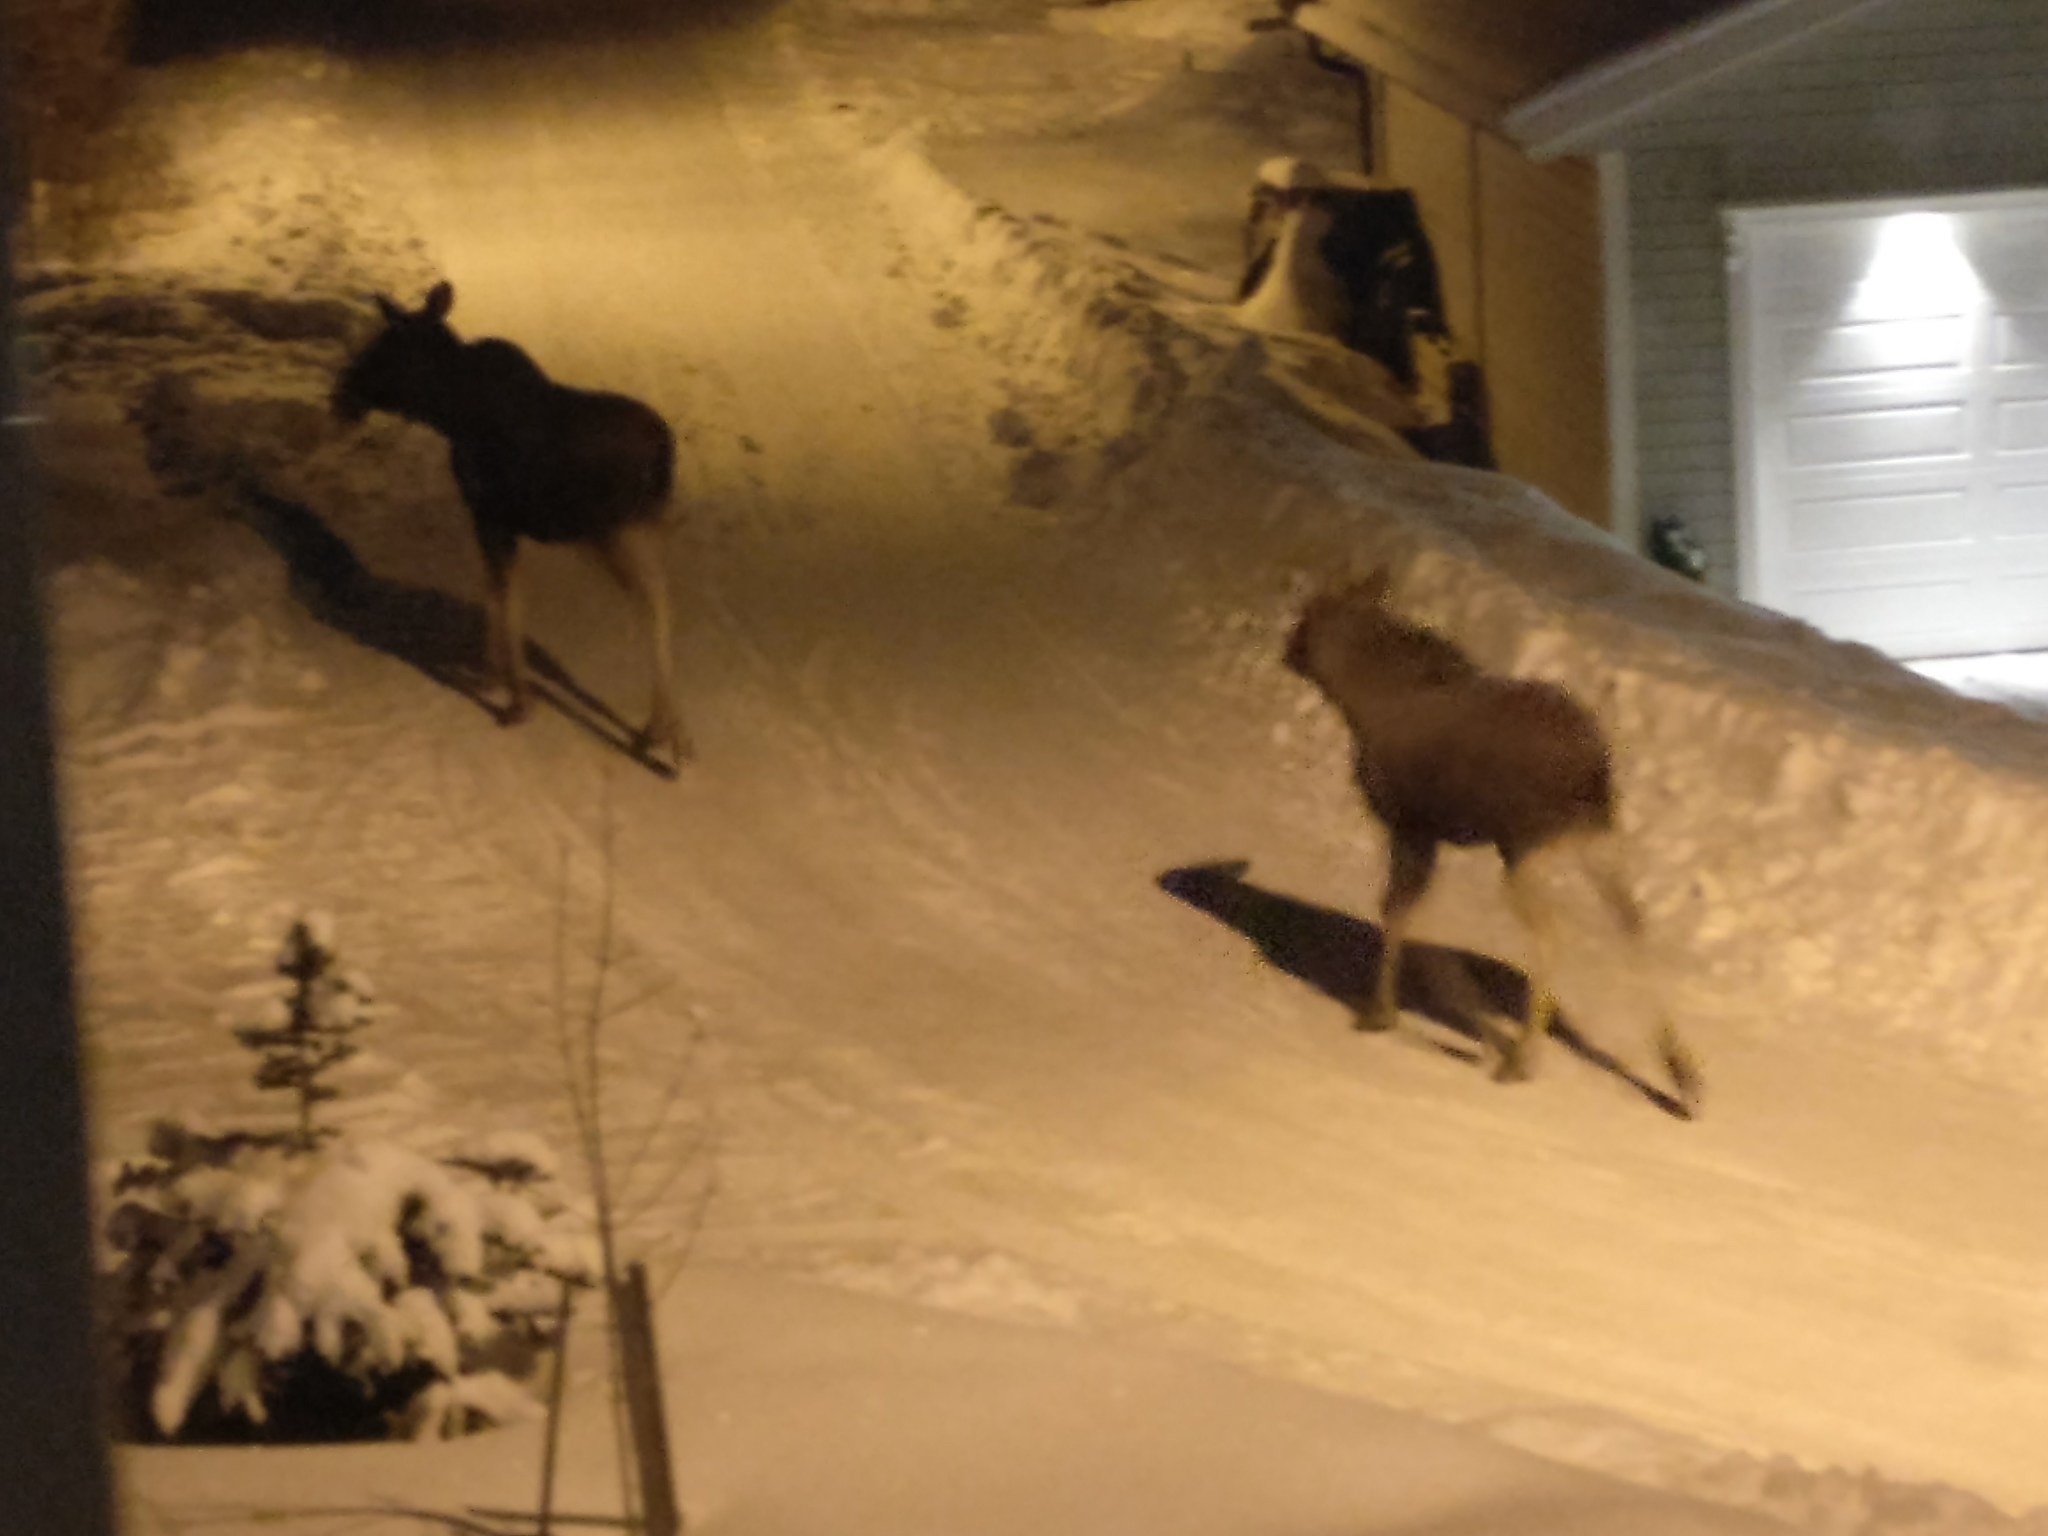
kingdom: Animalia
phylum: Chordata
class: Mammalia
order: Artiodactyla
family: Cervidae
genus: Alces
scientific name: Alces alces
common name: Moose
